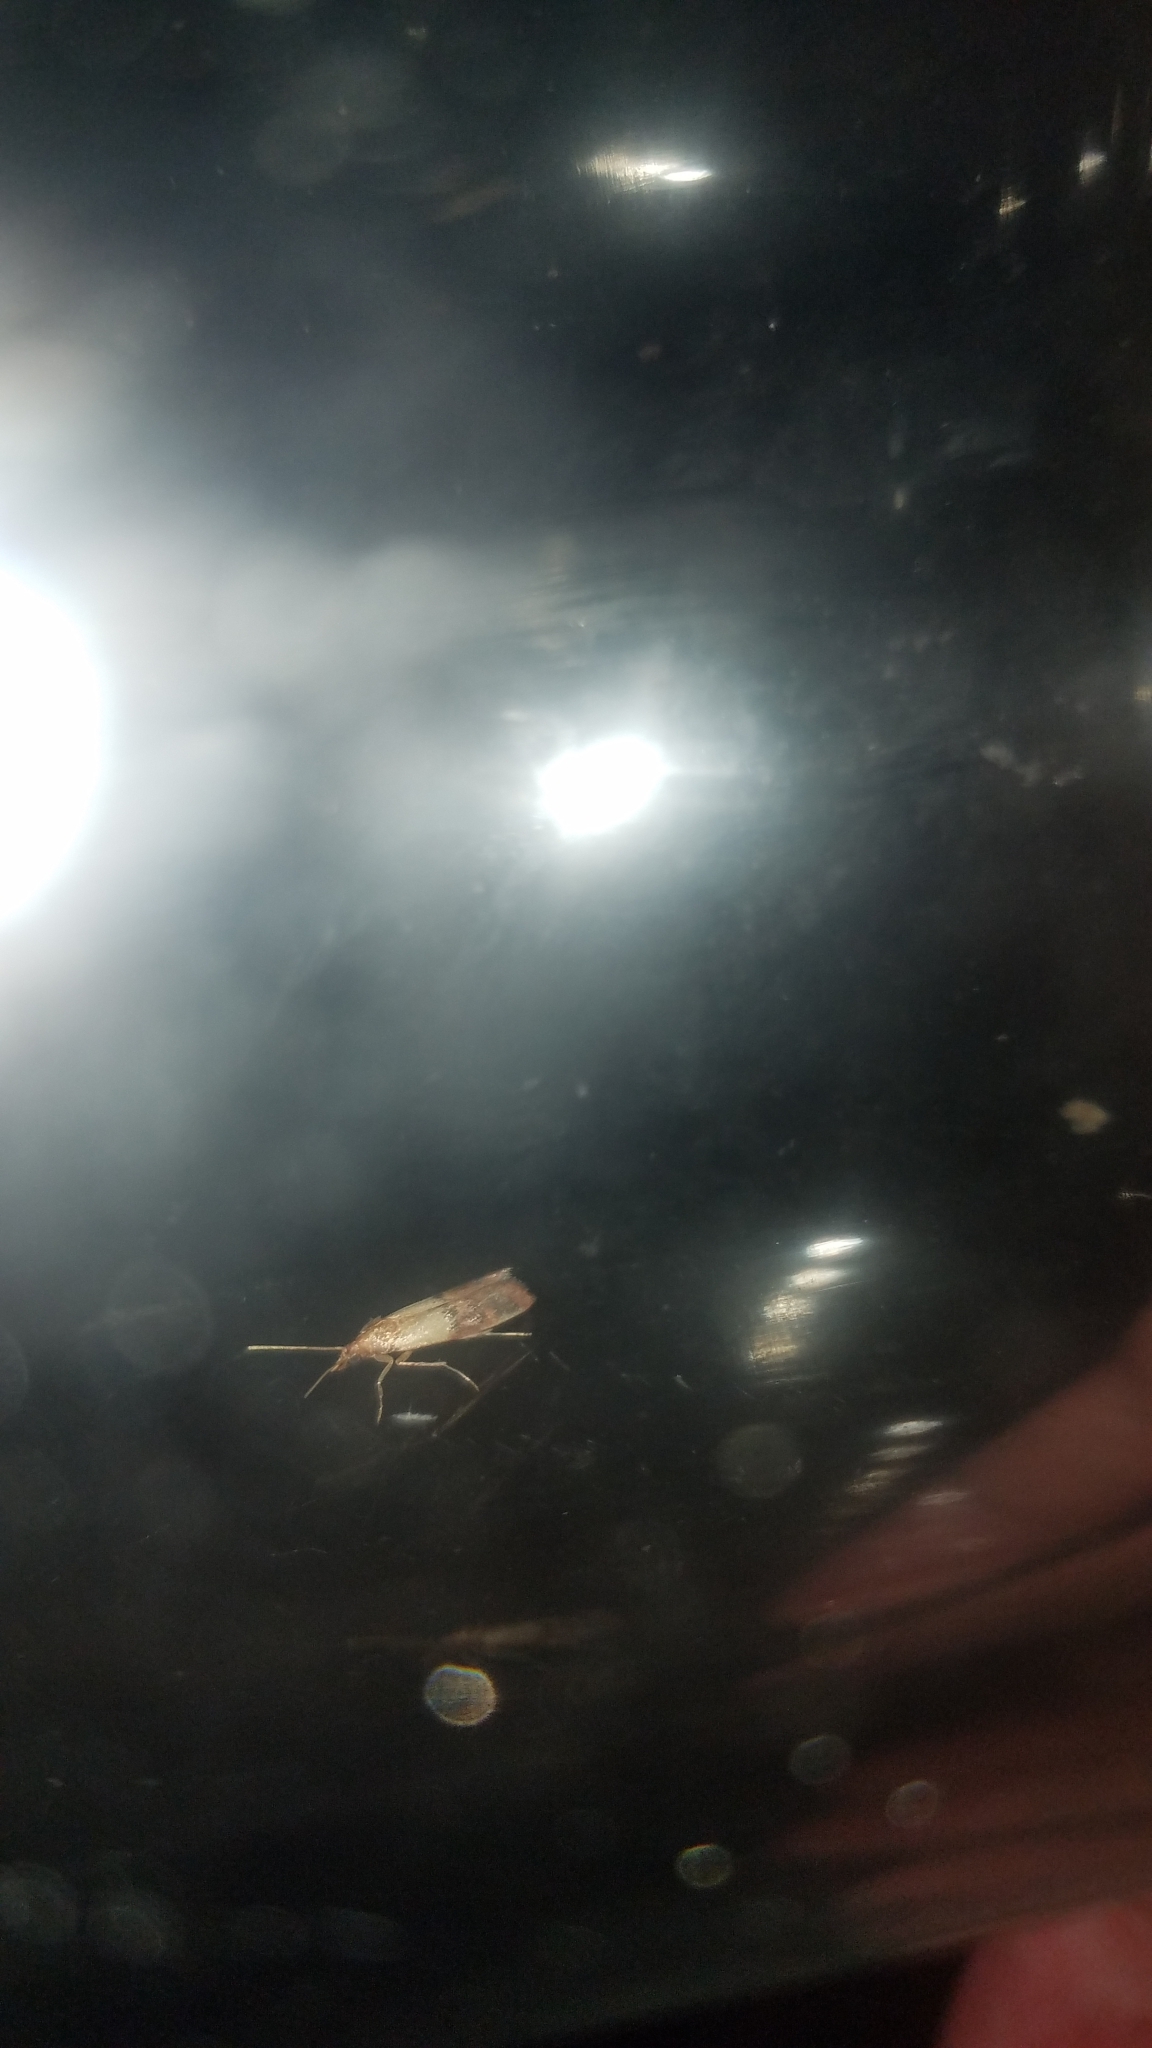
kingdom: Animalia
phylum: Arthropoda
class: Insecta
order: Lepidoptera
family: Pyralidae
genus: Plodia
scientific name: Plodia interpunctella
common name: Indian meal moth
